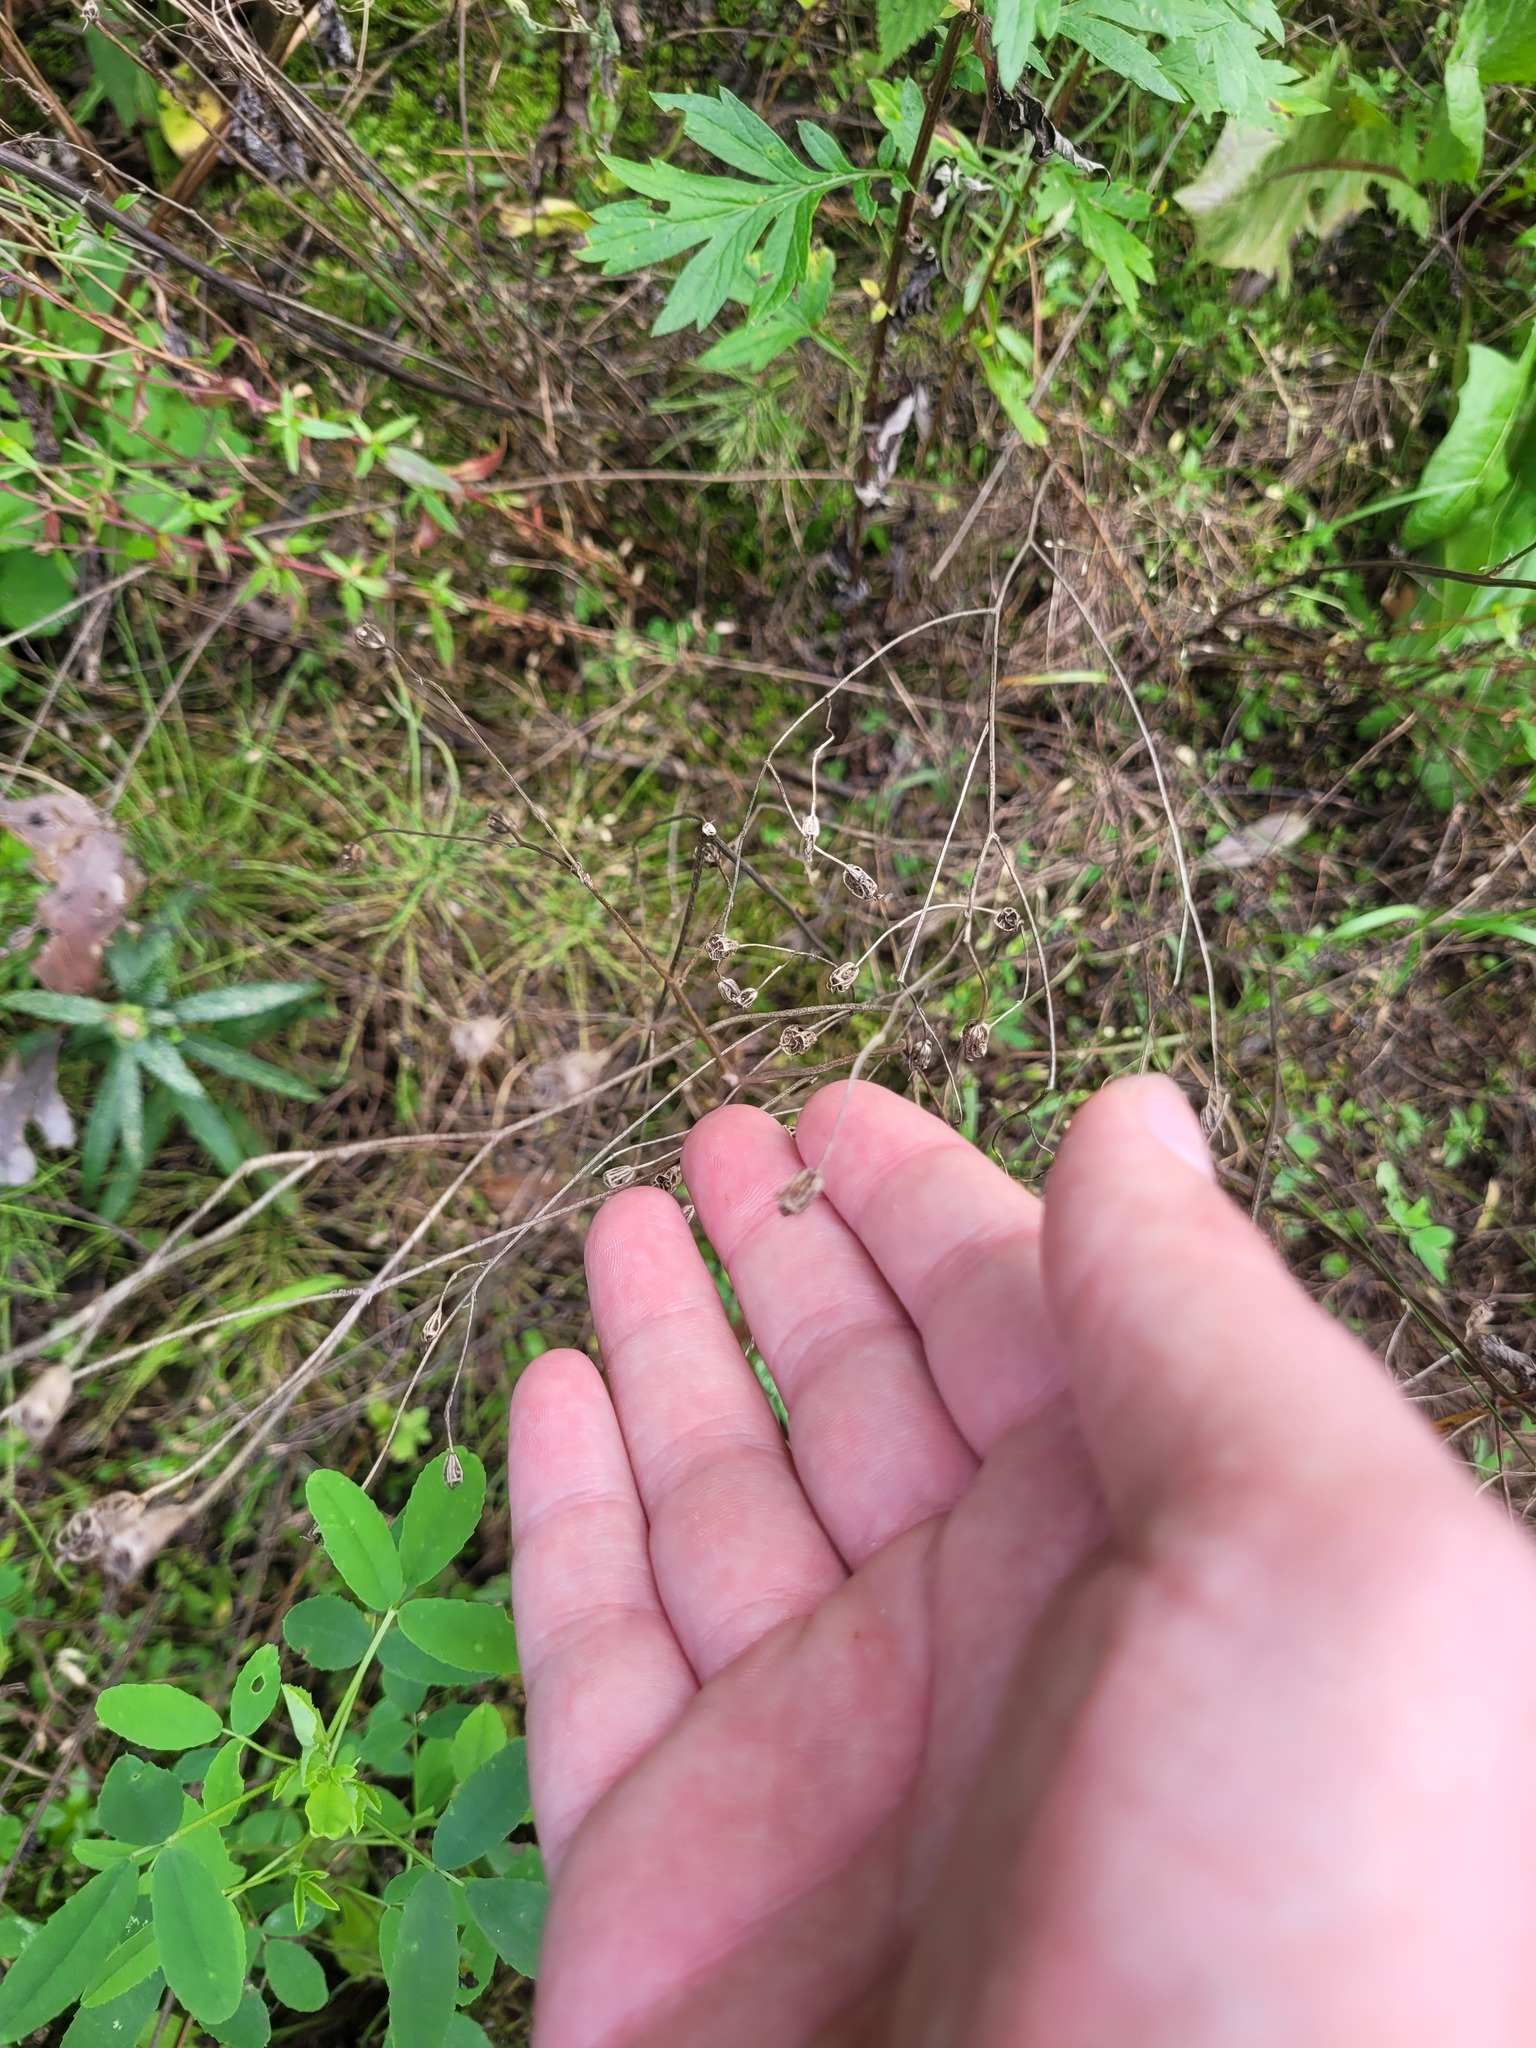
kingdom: Plantae
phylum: Tracheophyta
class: Magnoliopsida
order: Asterales
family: Campanulaceae
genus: Campanula
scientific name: Campanula patula
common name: Spreading bellflower
